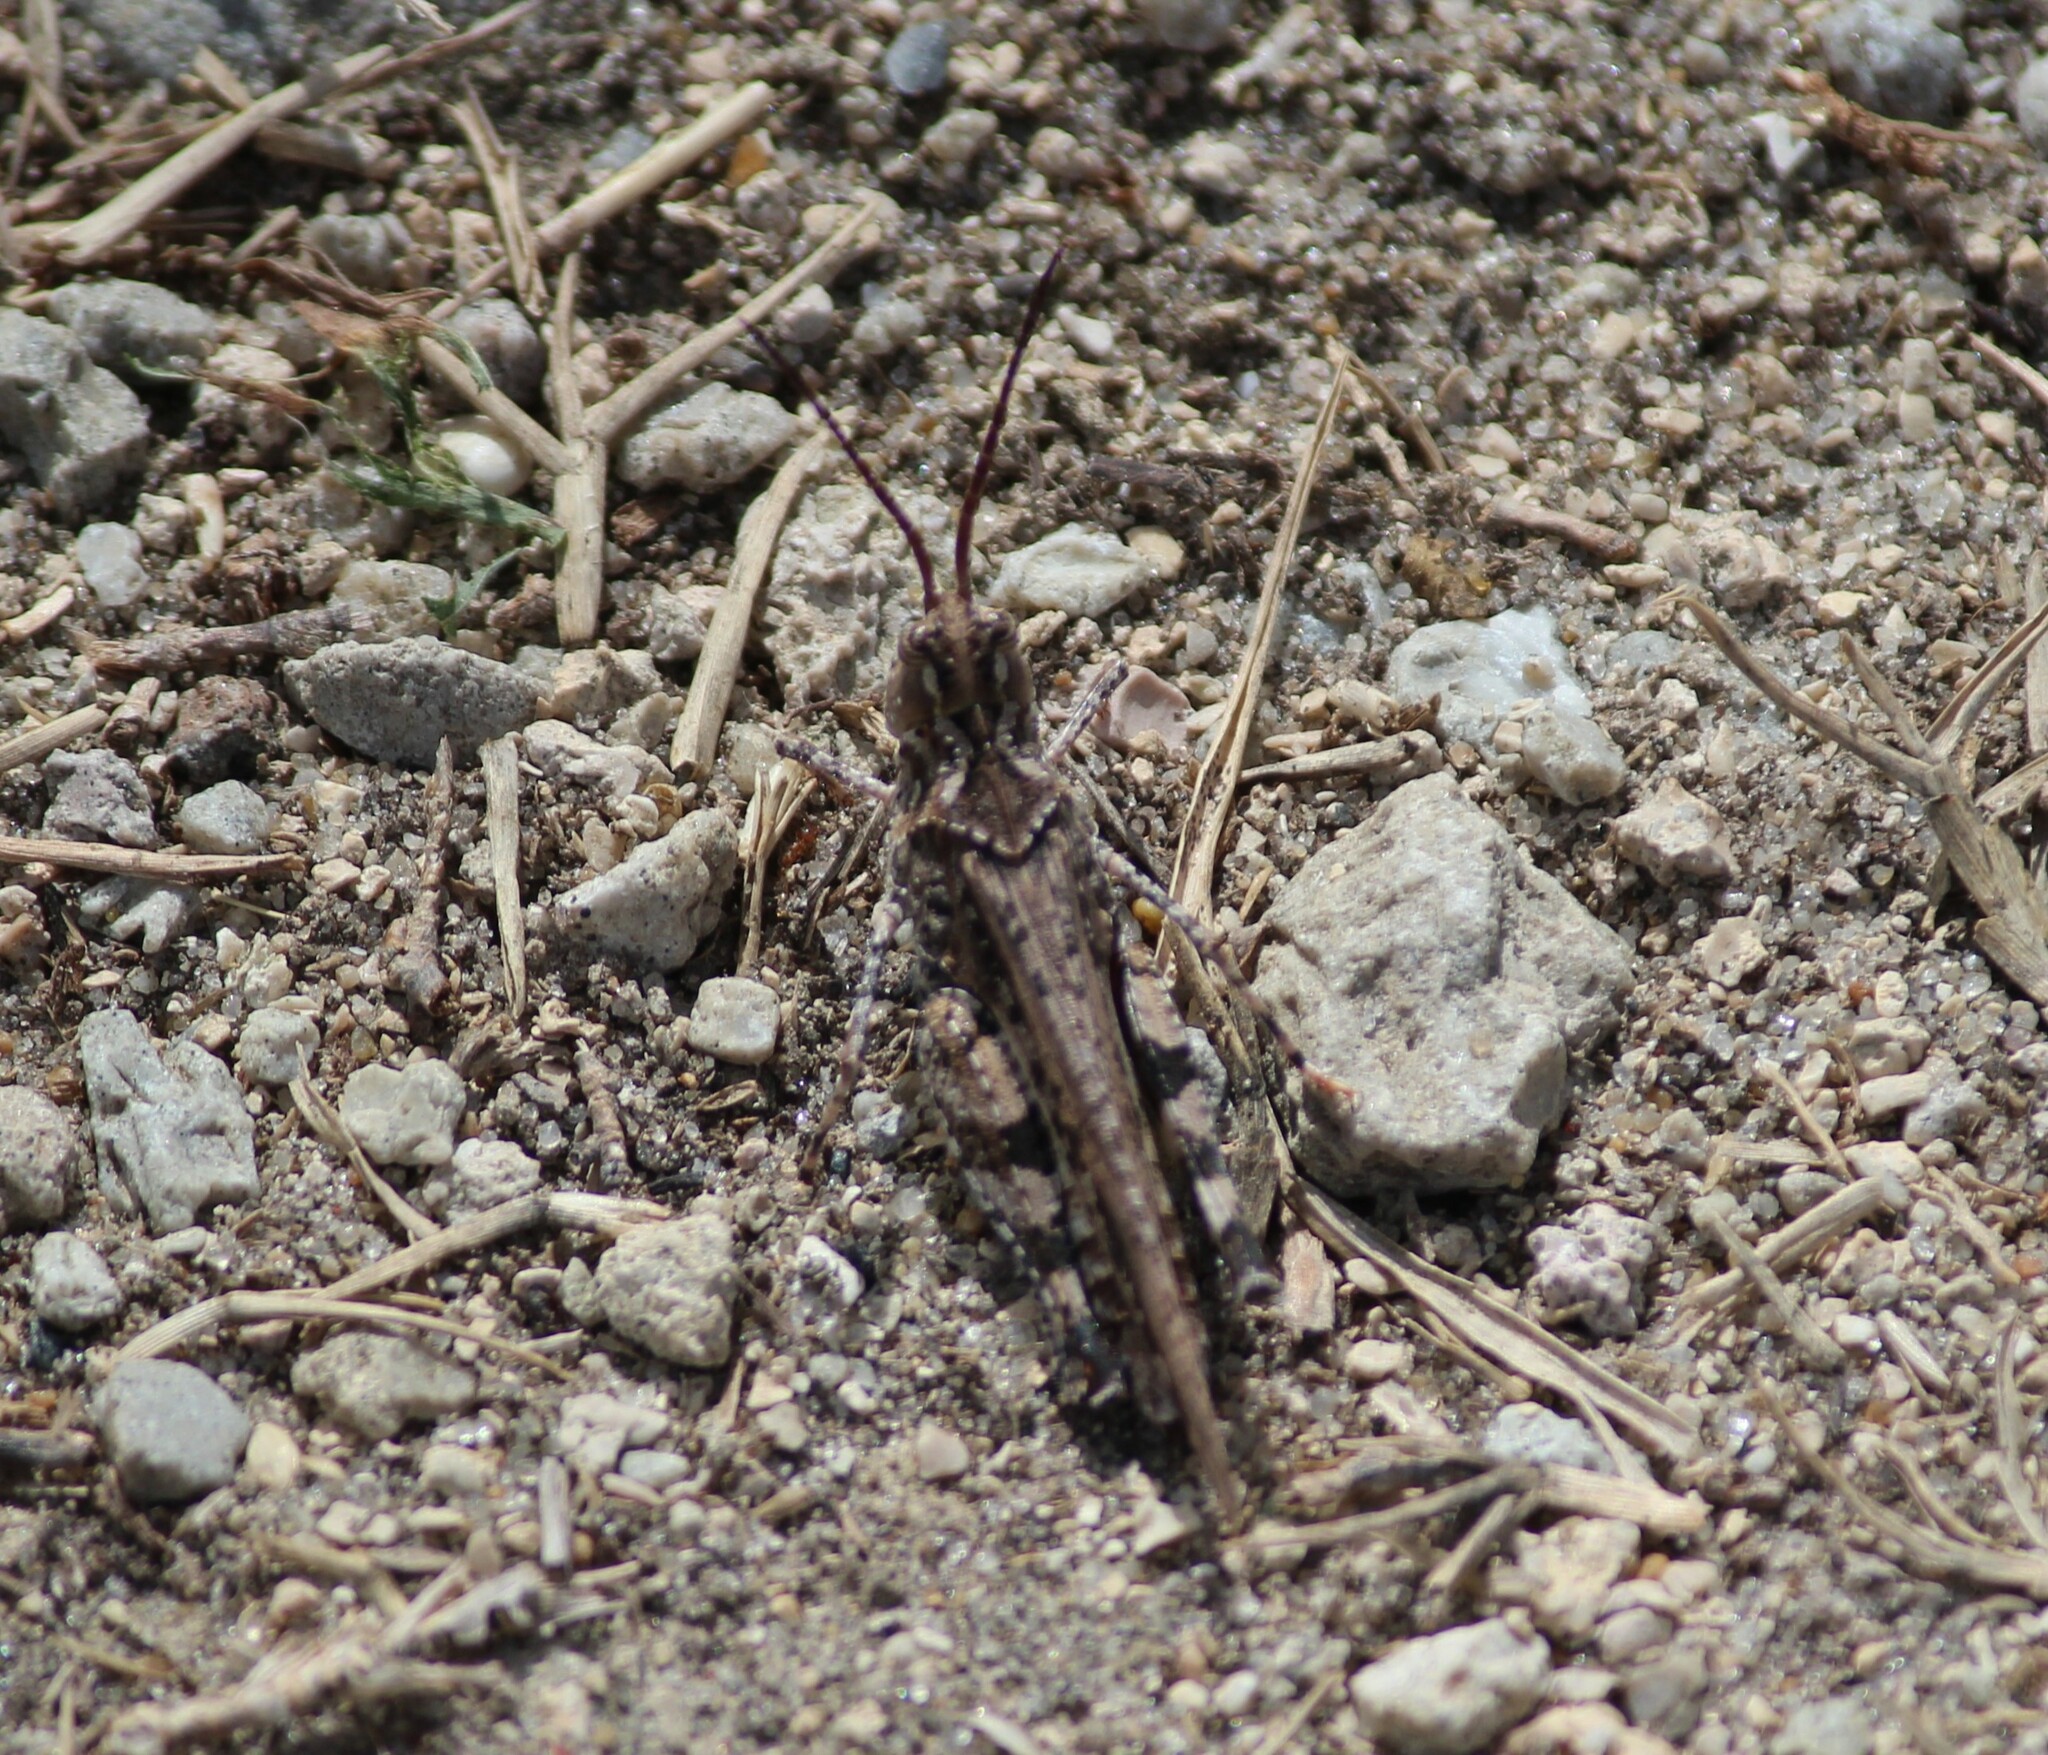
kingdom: Animalia
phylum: Arthropoda
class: Insecta
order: Orthoptera
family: Acrididae
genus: Psinidia
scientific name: Psinidia fenestralis
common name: Long-horned locust
